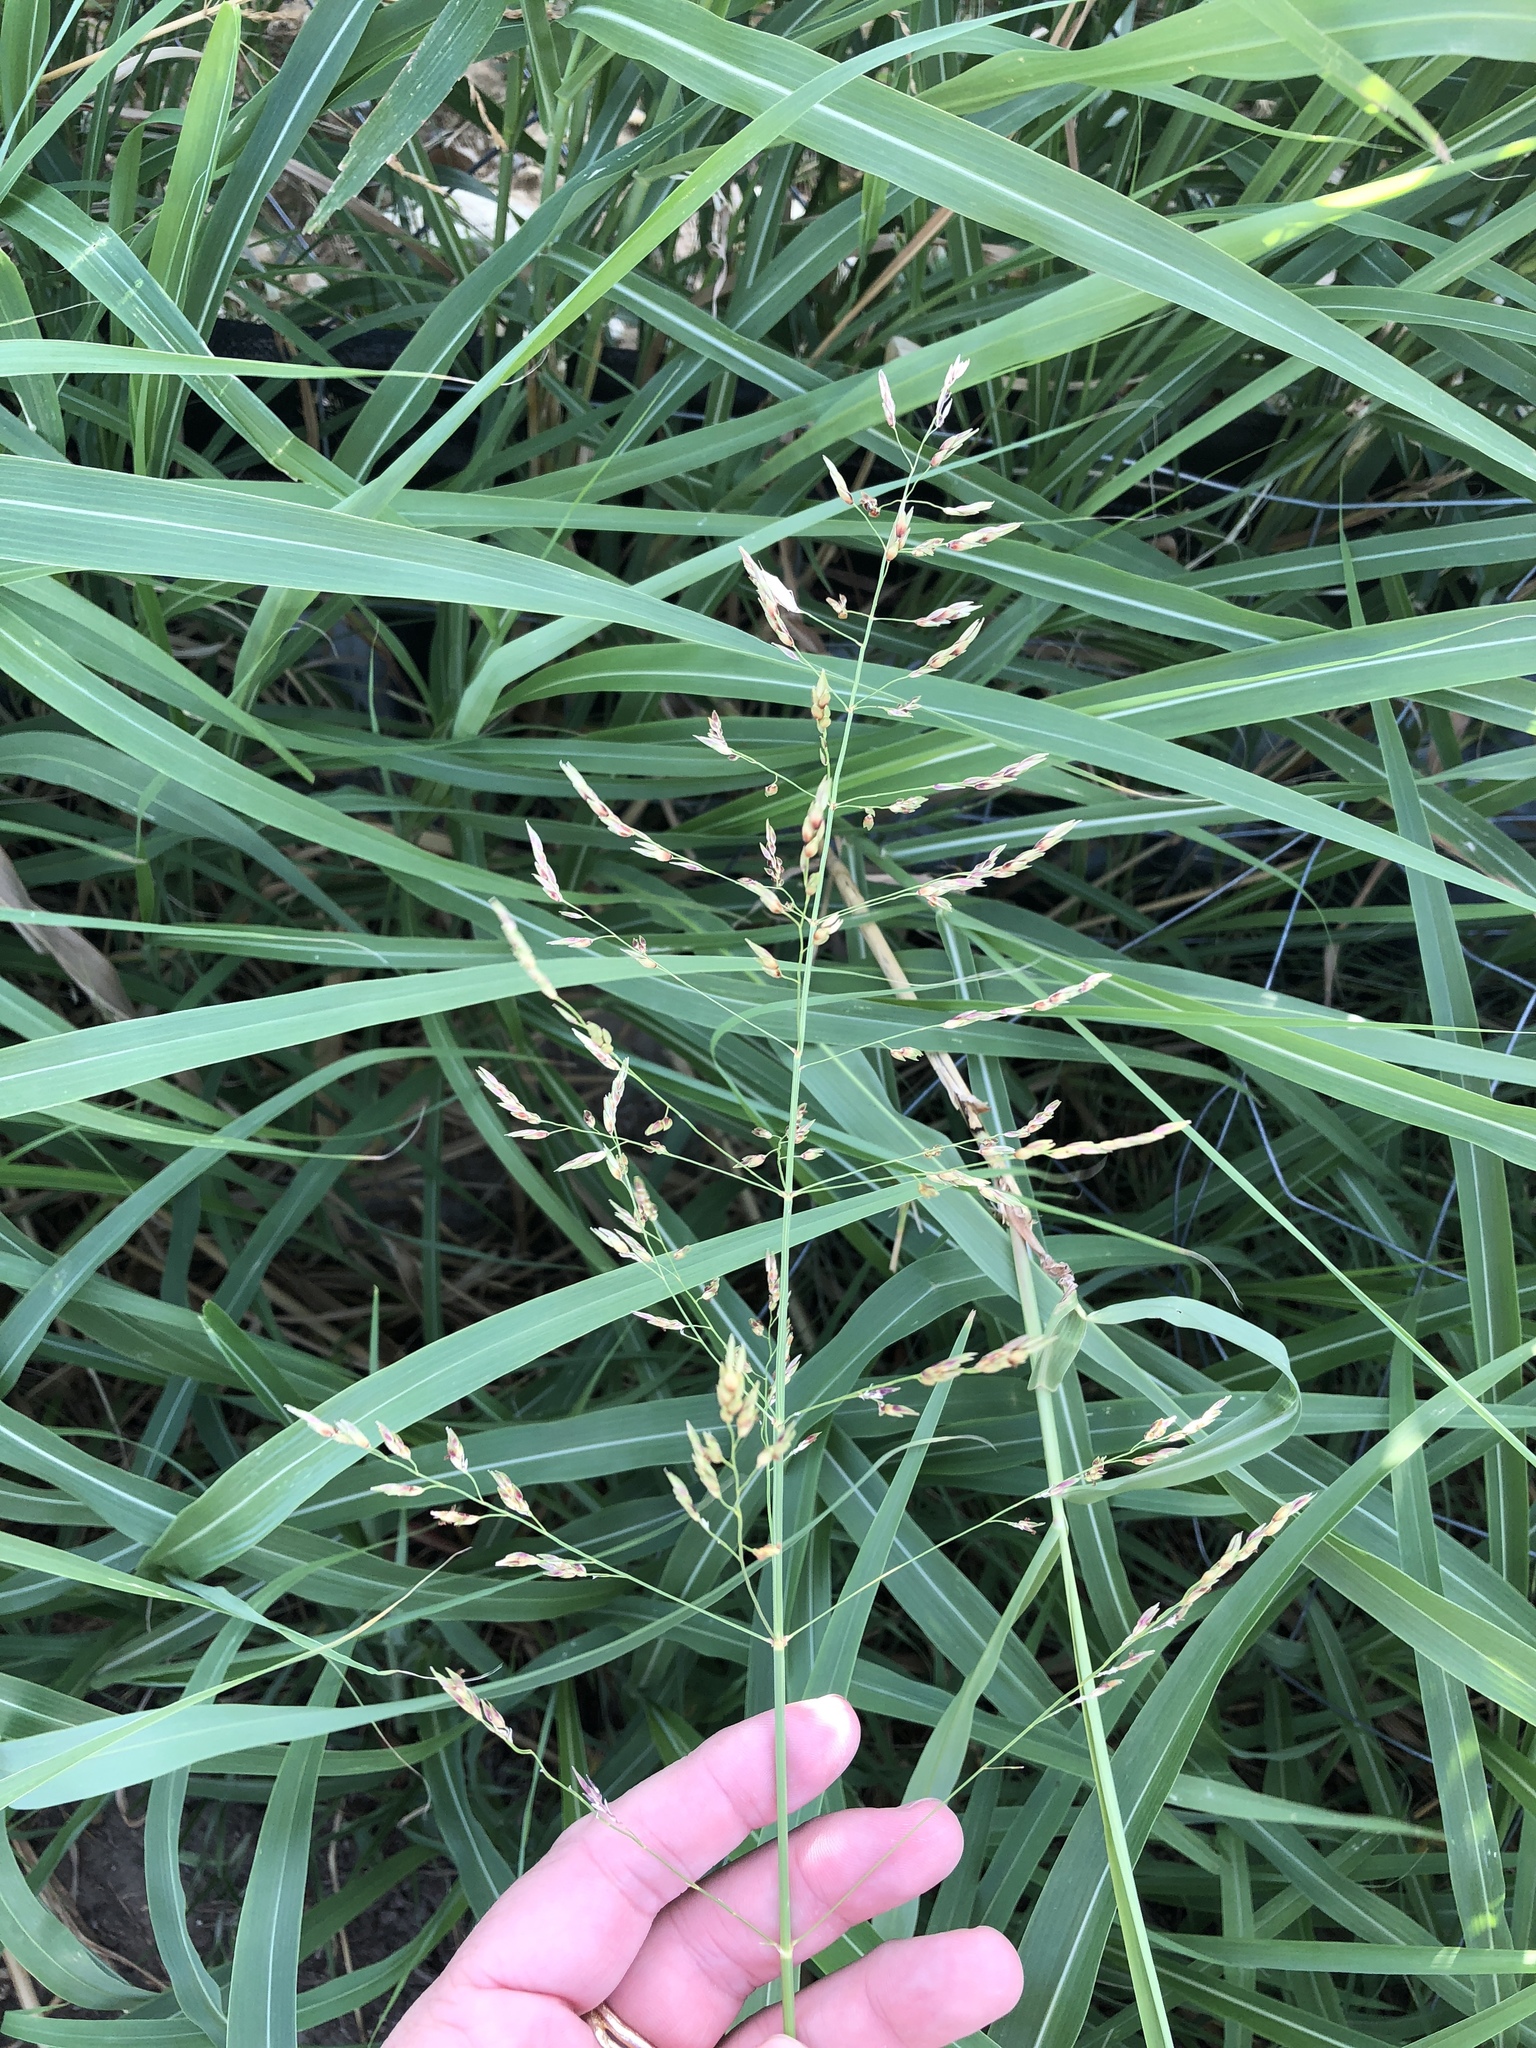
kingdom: Plantae
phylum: Tracheophyta
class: Liliopsida
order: Poales
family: Poaceae
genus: Sorghum
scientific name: Sorghum halepense
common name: Johnson-grass
